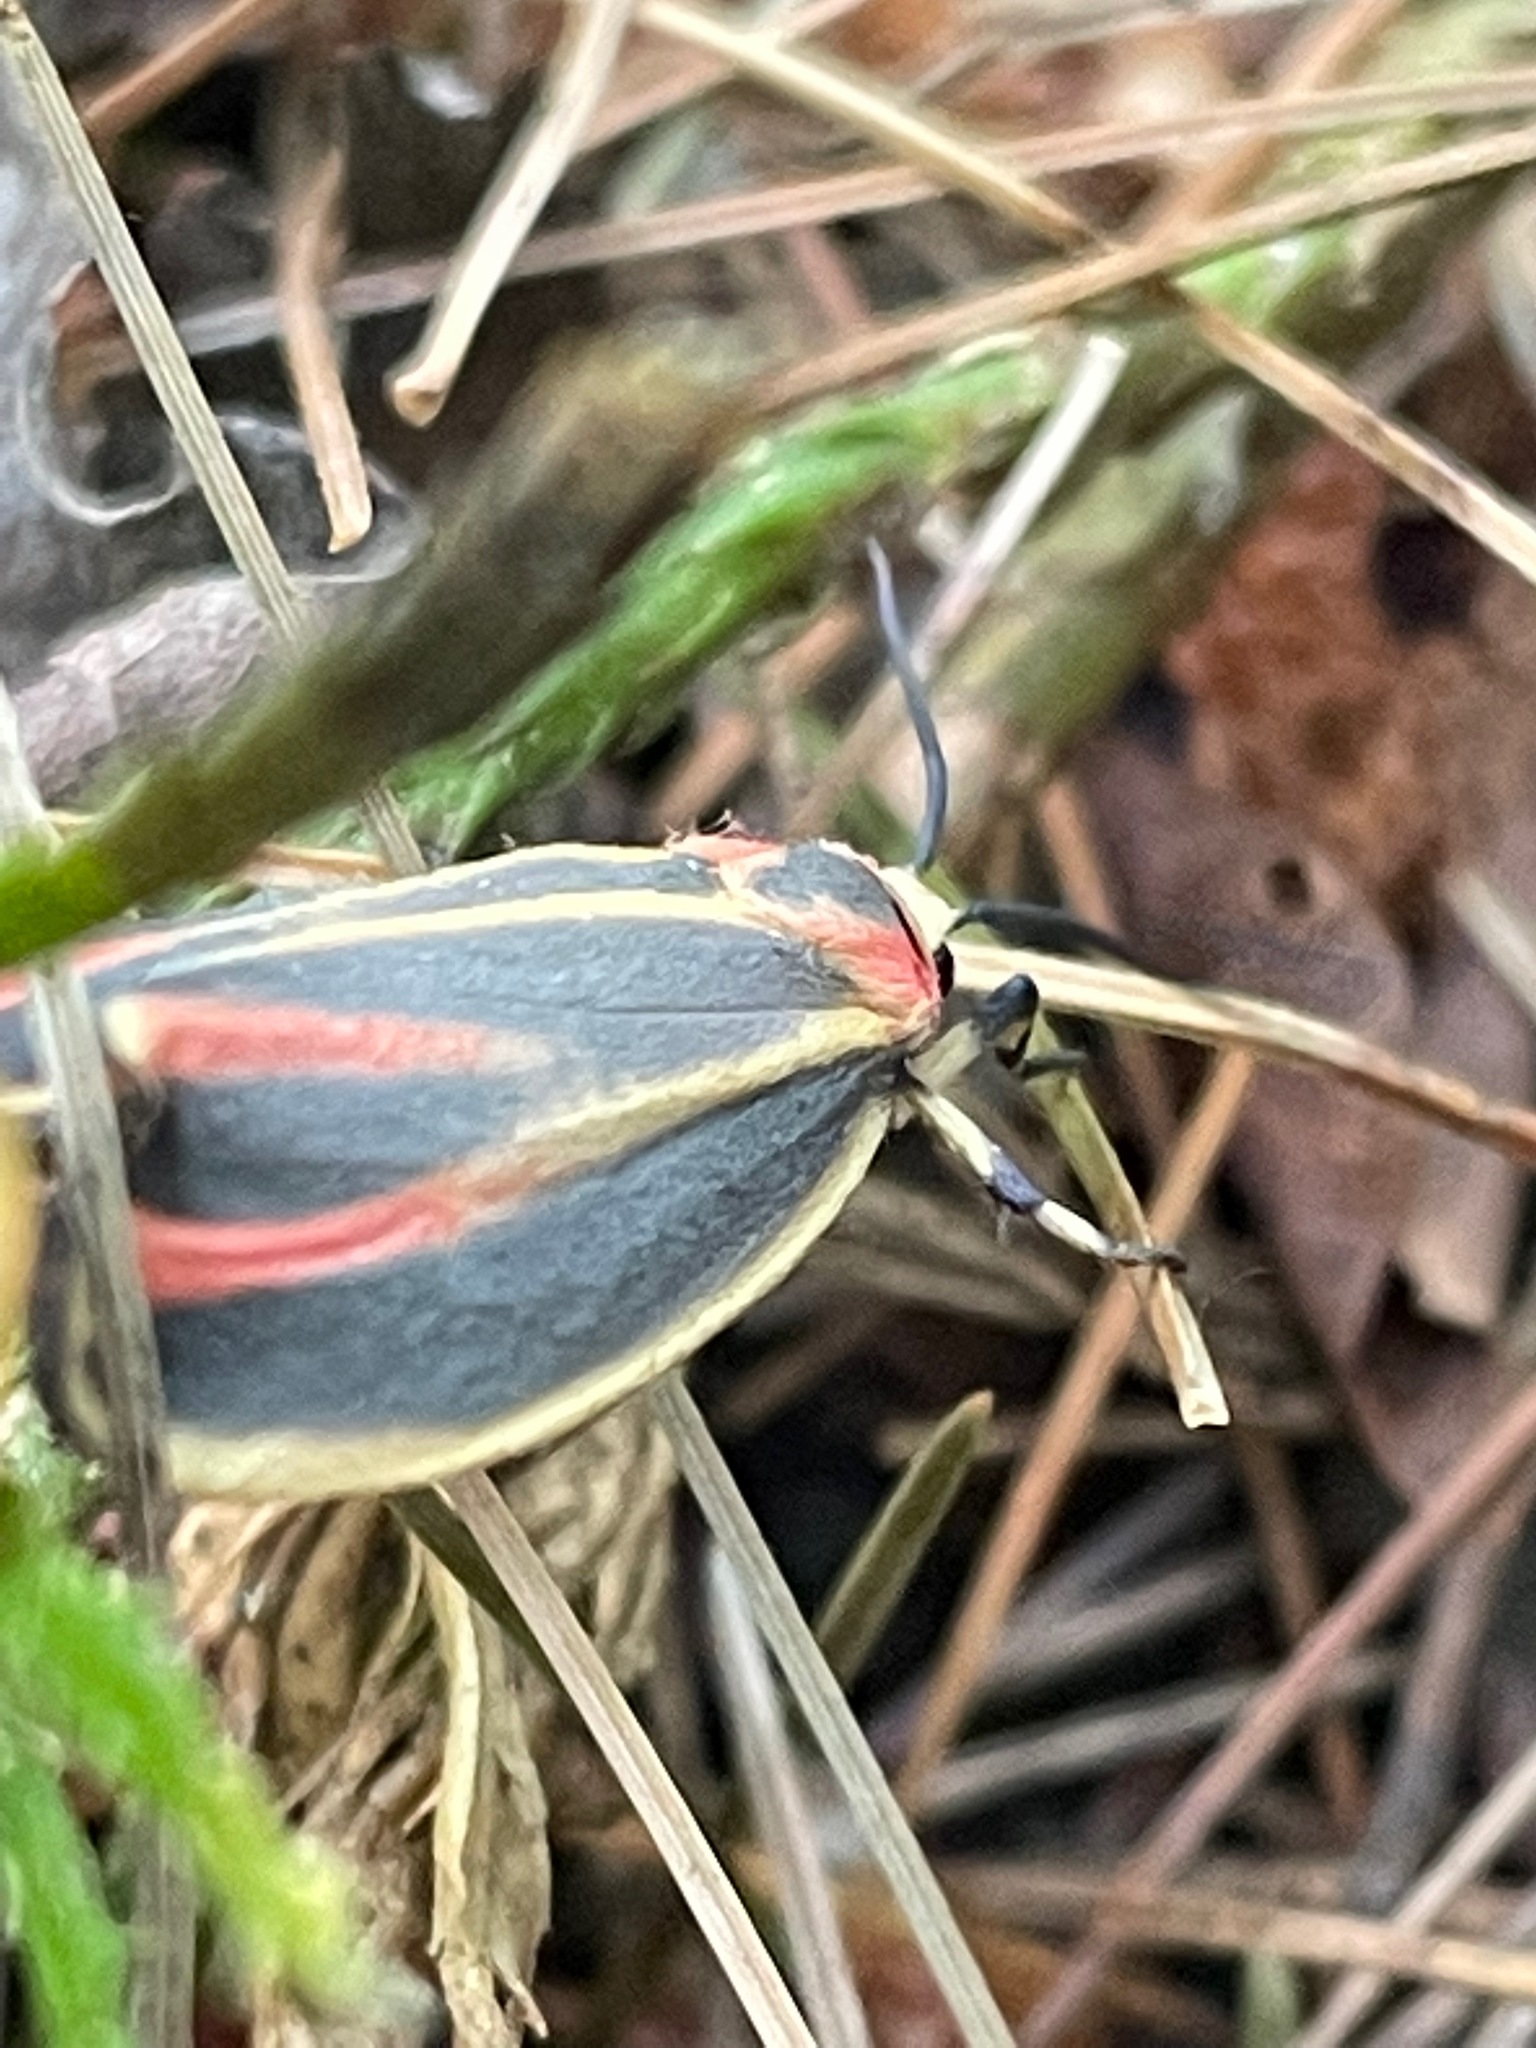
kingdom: Animalia
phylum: Arthropoda
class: Insecta
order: Lepidoptera
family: Erebidae
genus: Hypoprepia
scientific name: Hypoprepia fucosa
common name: Painted lichen moth
